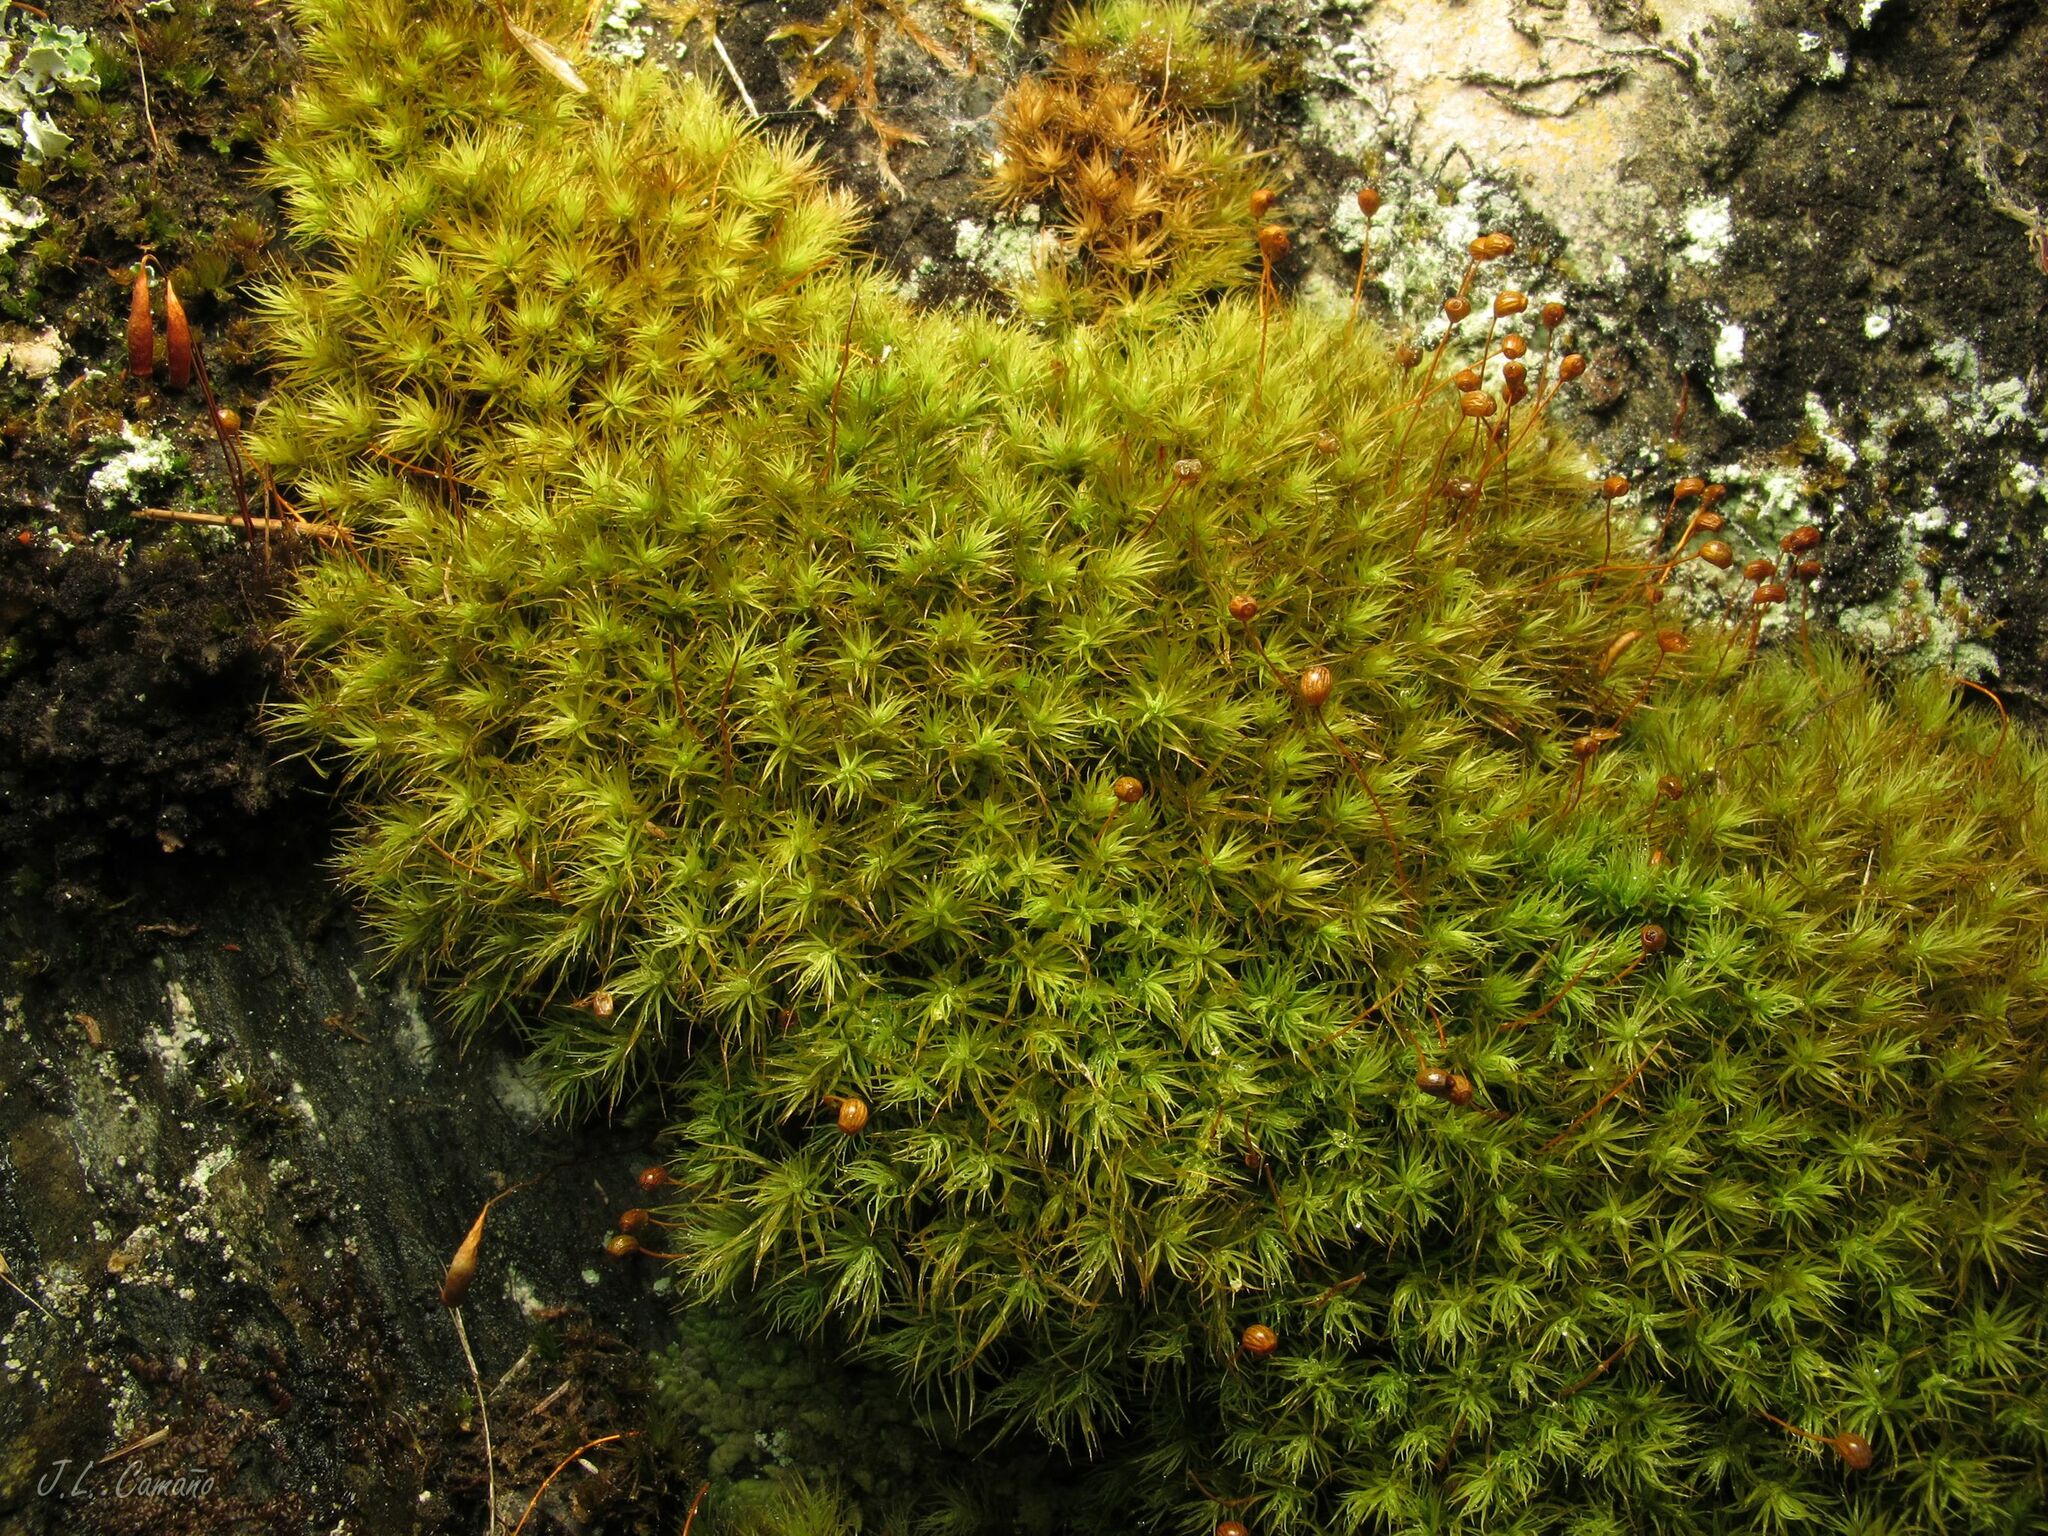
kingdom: Plantae
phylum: Bryophyta
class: Bryopsida
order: Bartramiales
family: Bartramiaceae
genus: Bartramia
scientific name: Bartramia ithyphylla
